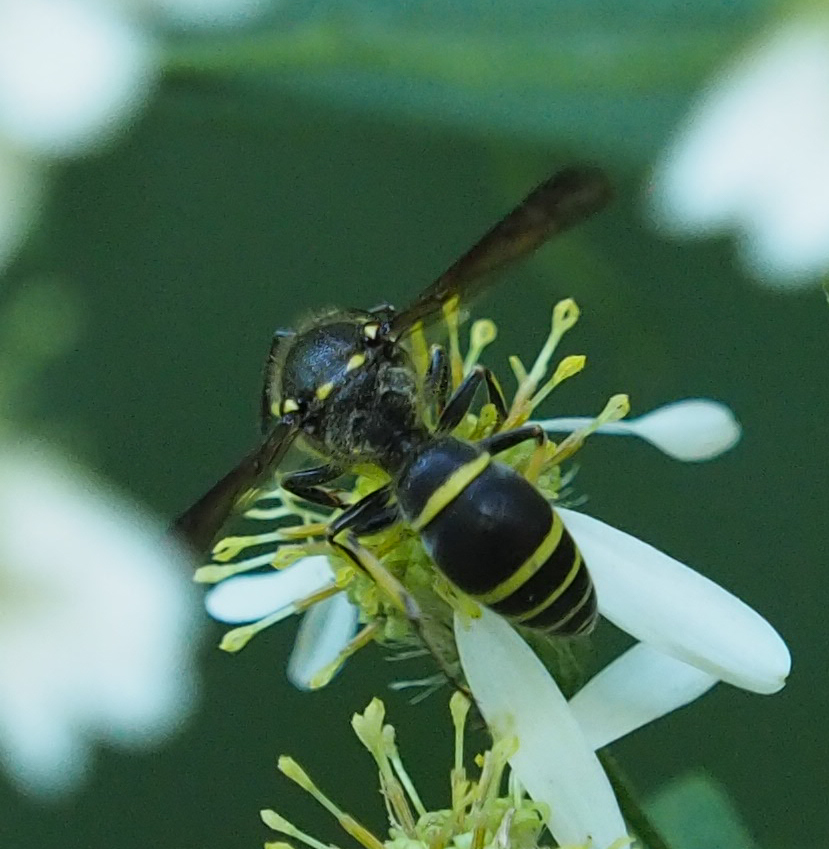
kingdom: Animalia
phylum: Arthropoda
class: Insecta
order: Hymenoptera
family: Vespidae
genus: Ancistrocerus
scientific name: Ancistrocerus
